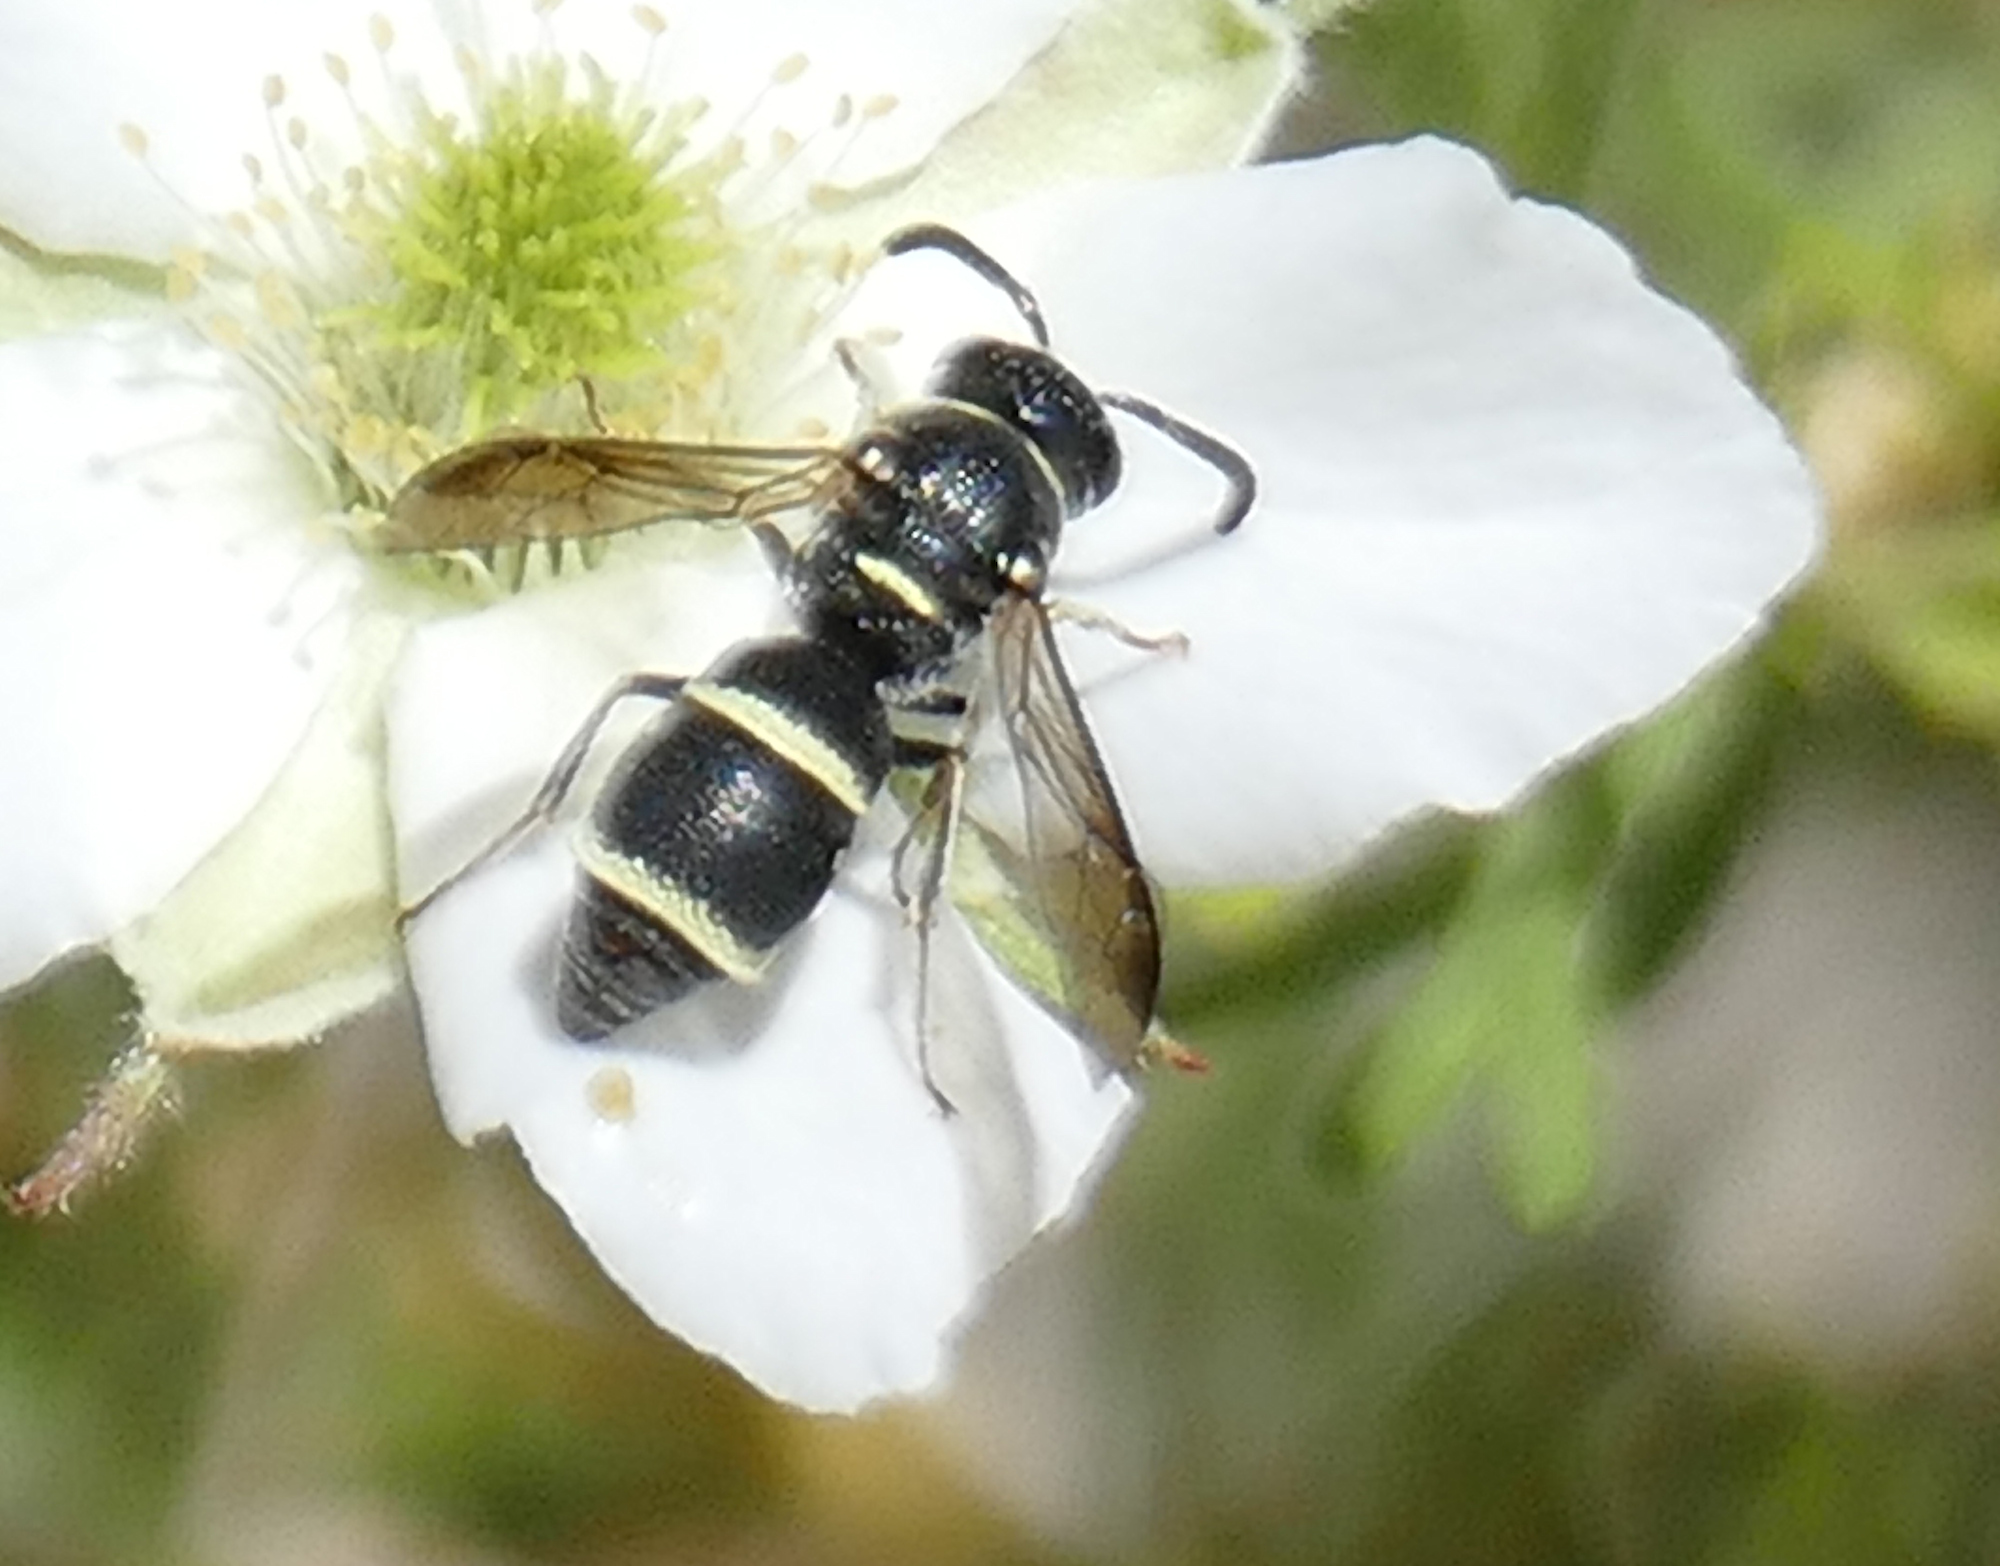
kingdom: Animalia
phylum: Arthropoda
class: Insecta
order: Hymenoptera
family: Eumenidae
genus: Parancistrocerus
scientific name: Parancistrocerus
